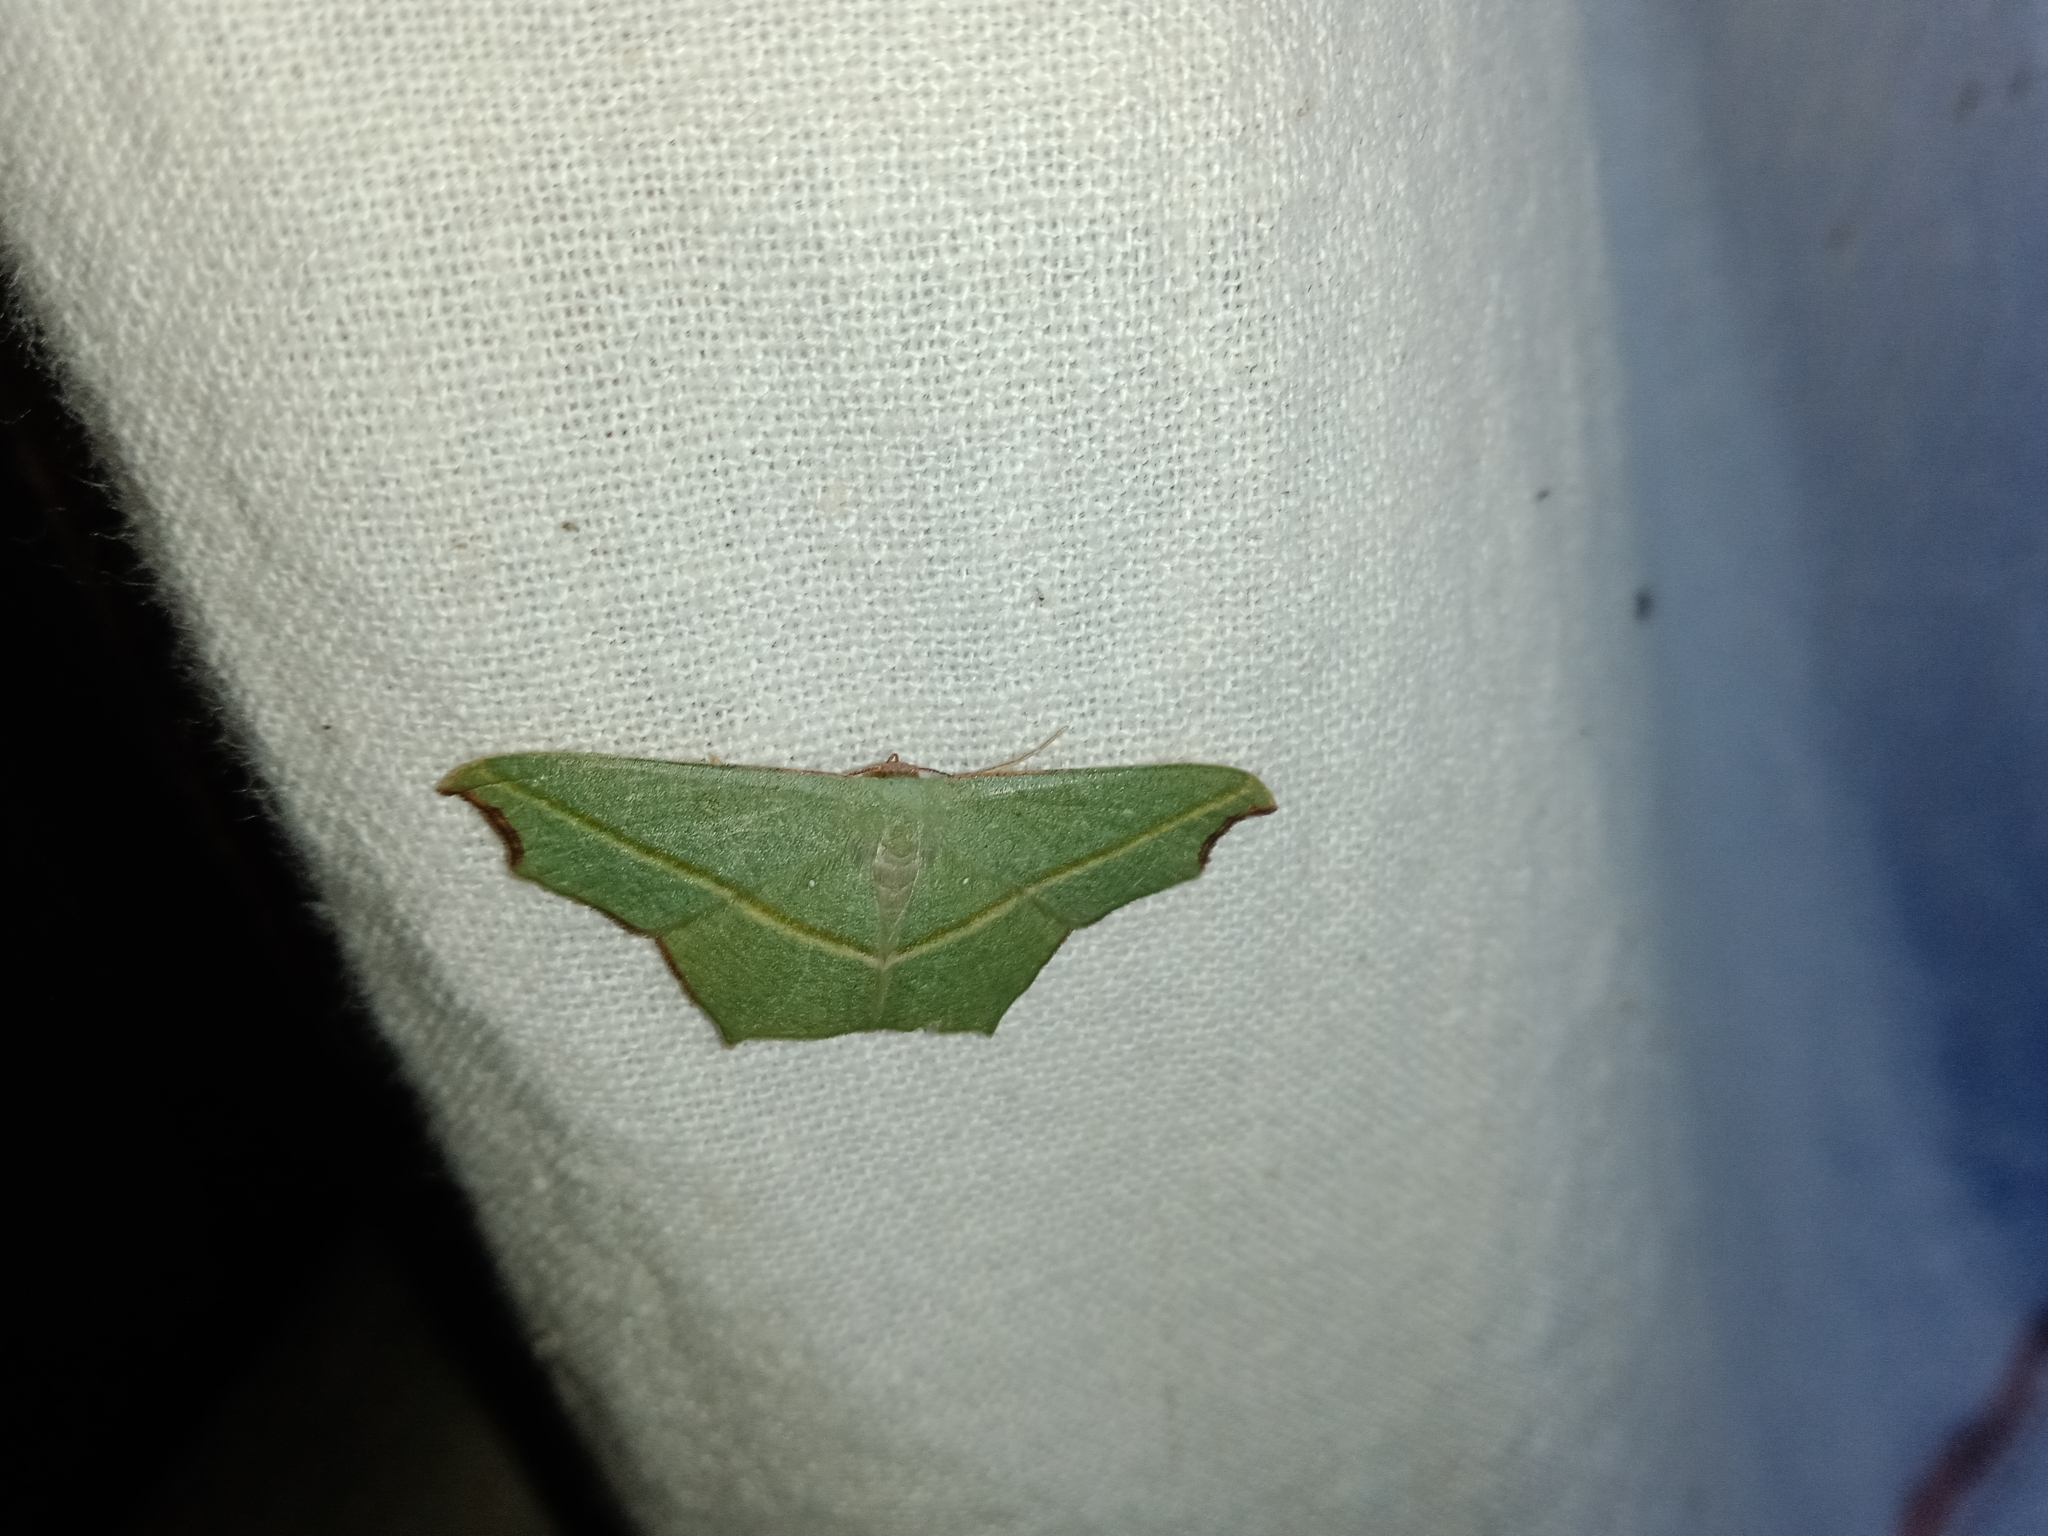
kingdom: Animalia
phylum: Arthropoda
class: Insecta
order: Lepidoptera
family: Geometridae
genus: Traminda
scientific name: Traminda aventiaria
